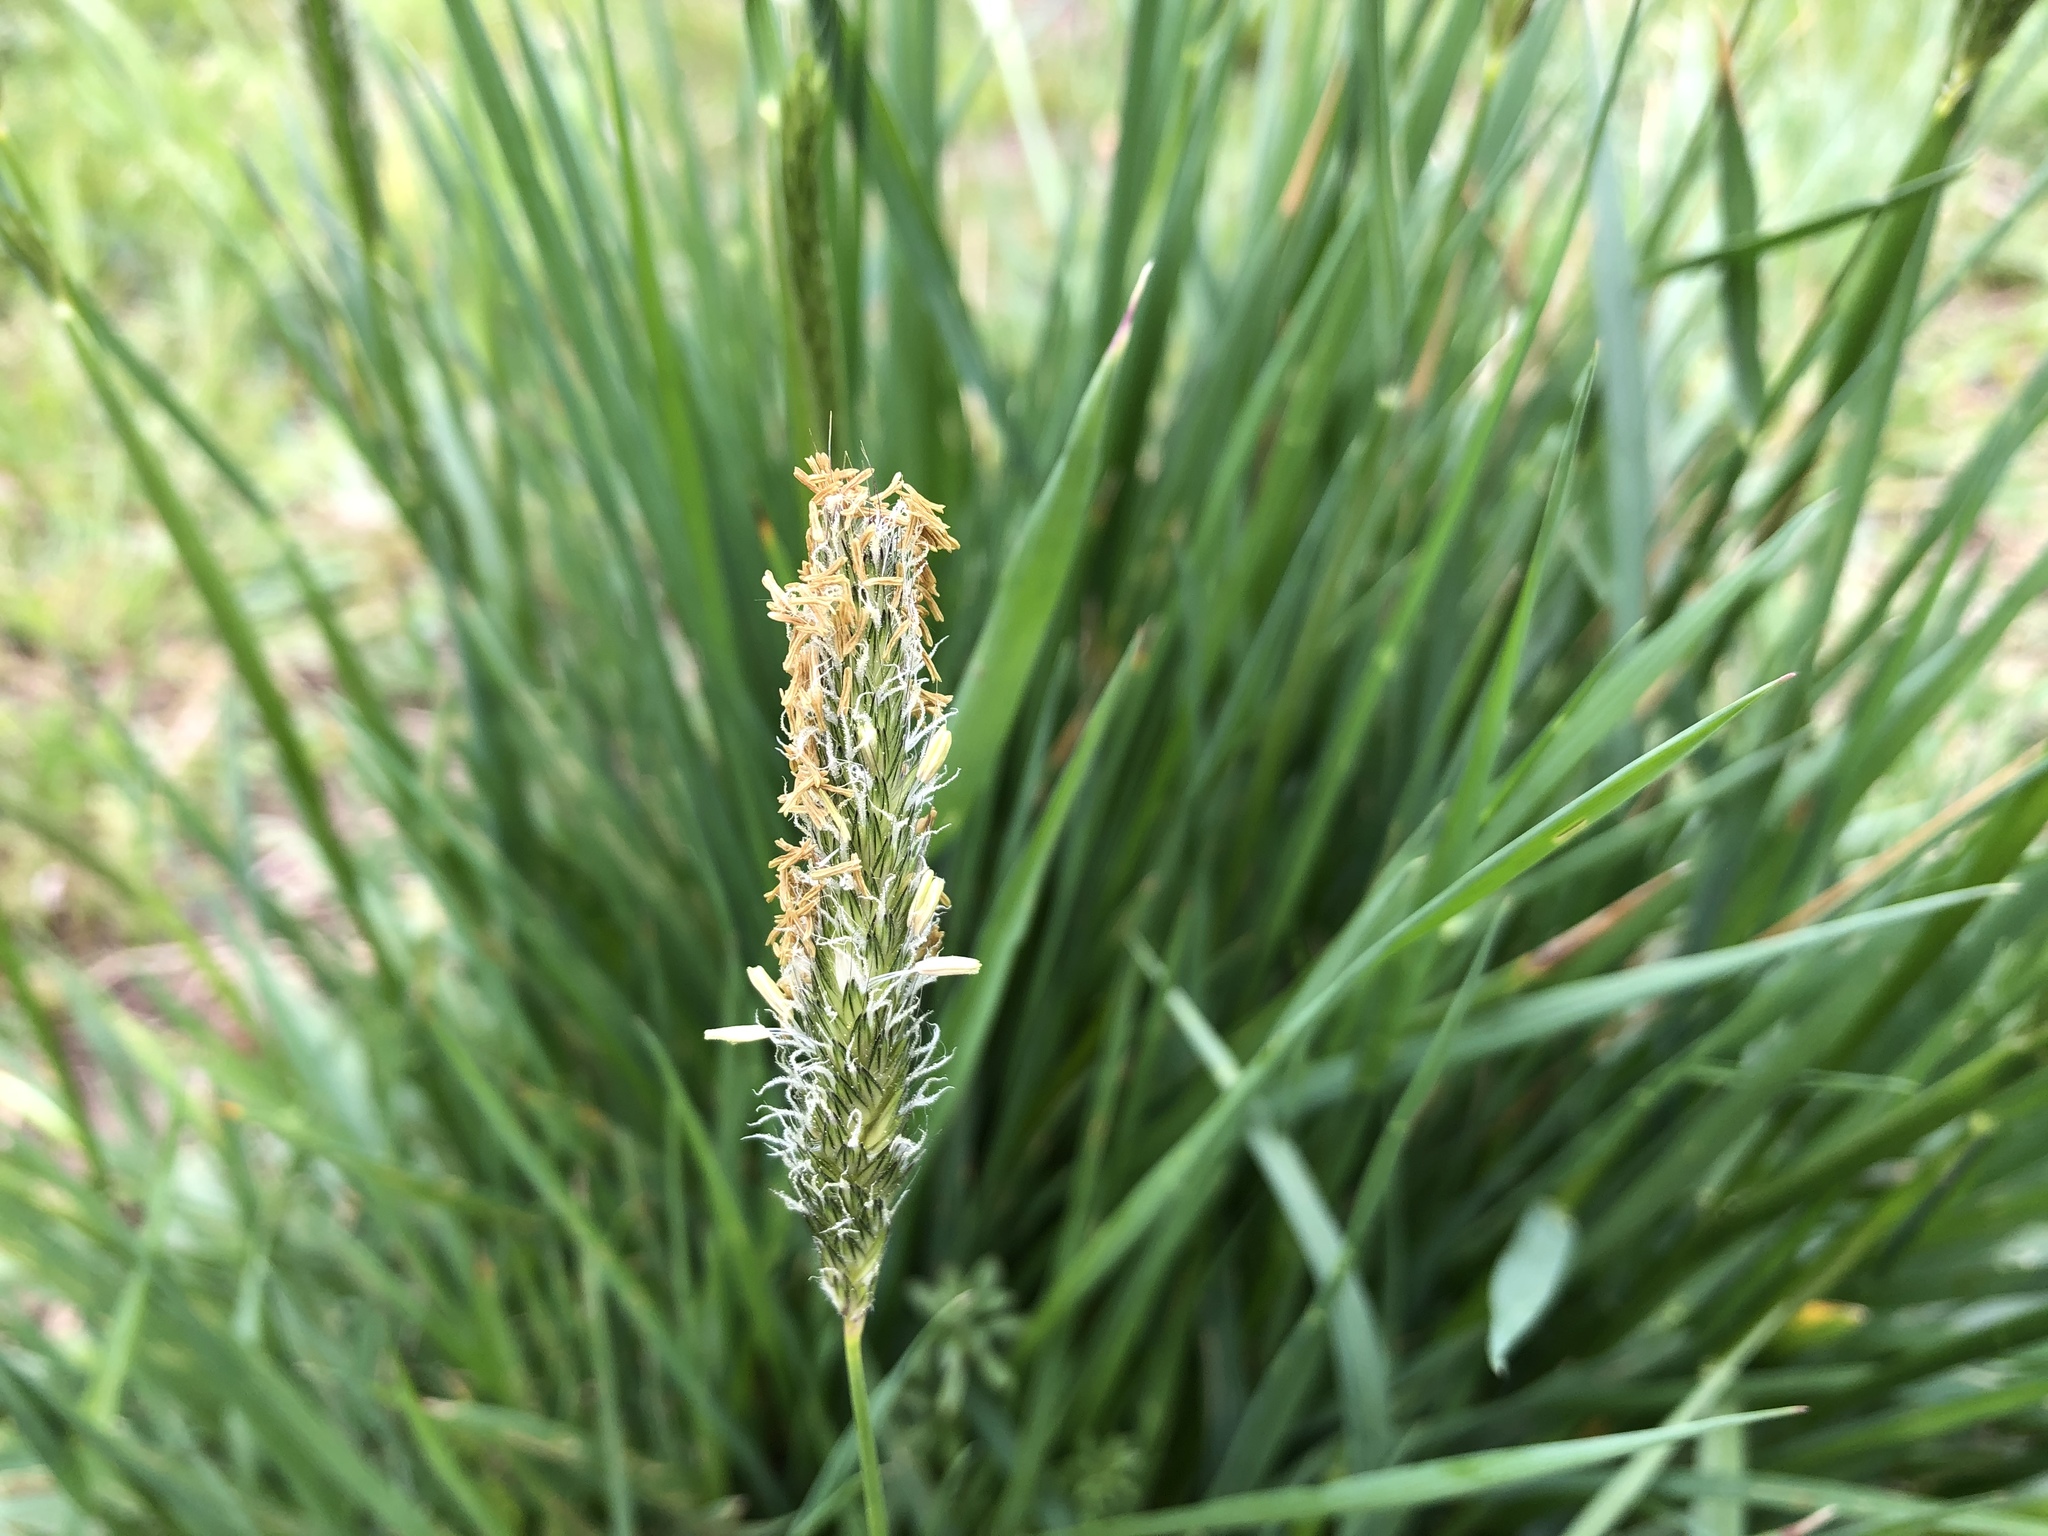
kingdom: Plantae
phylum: Tracheophyta
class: Liliopsida
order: Poales
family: Poaceae
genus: Alopecurus
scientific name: Alopecurus pratensis
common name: Meadow foxtail
